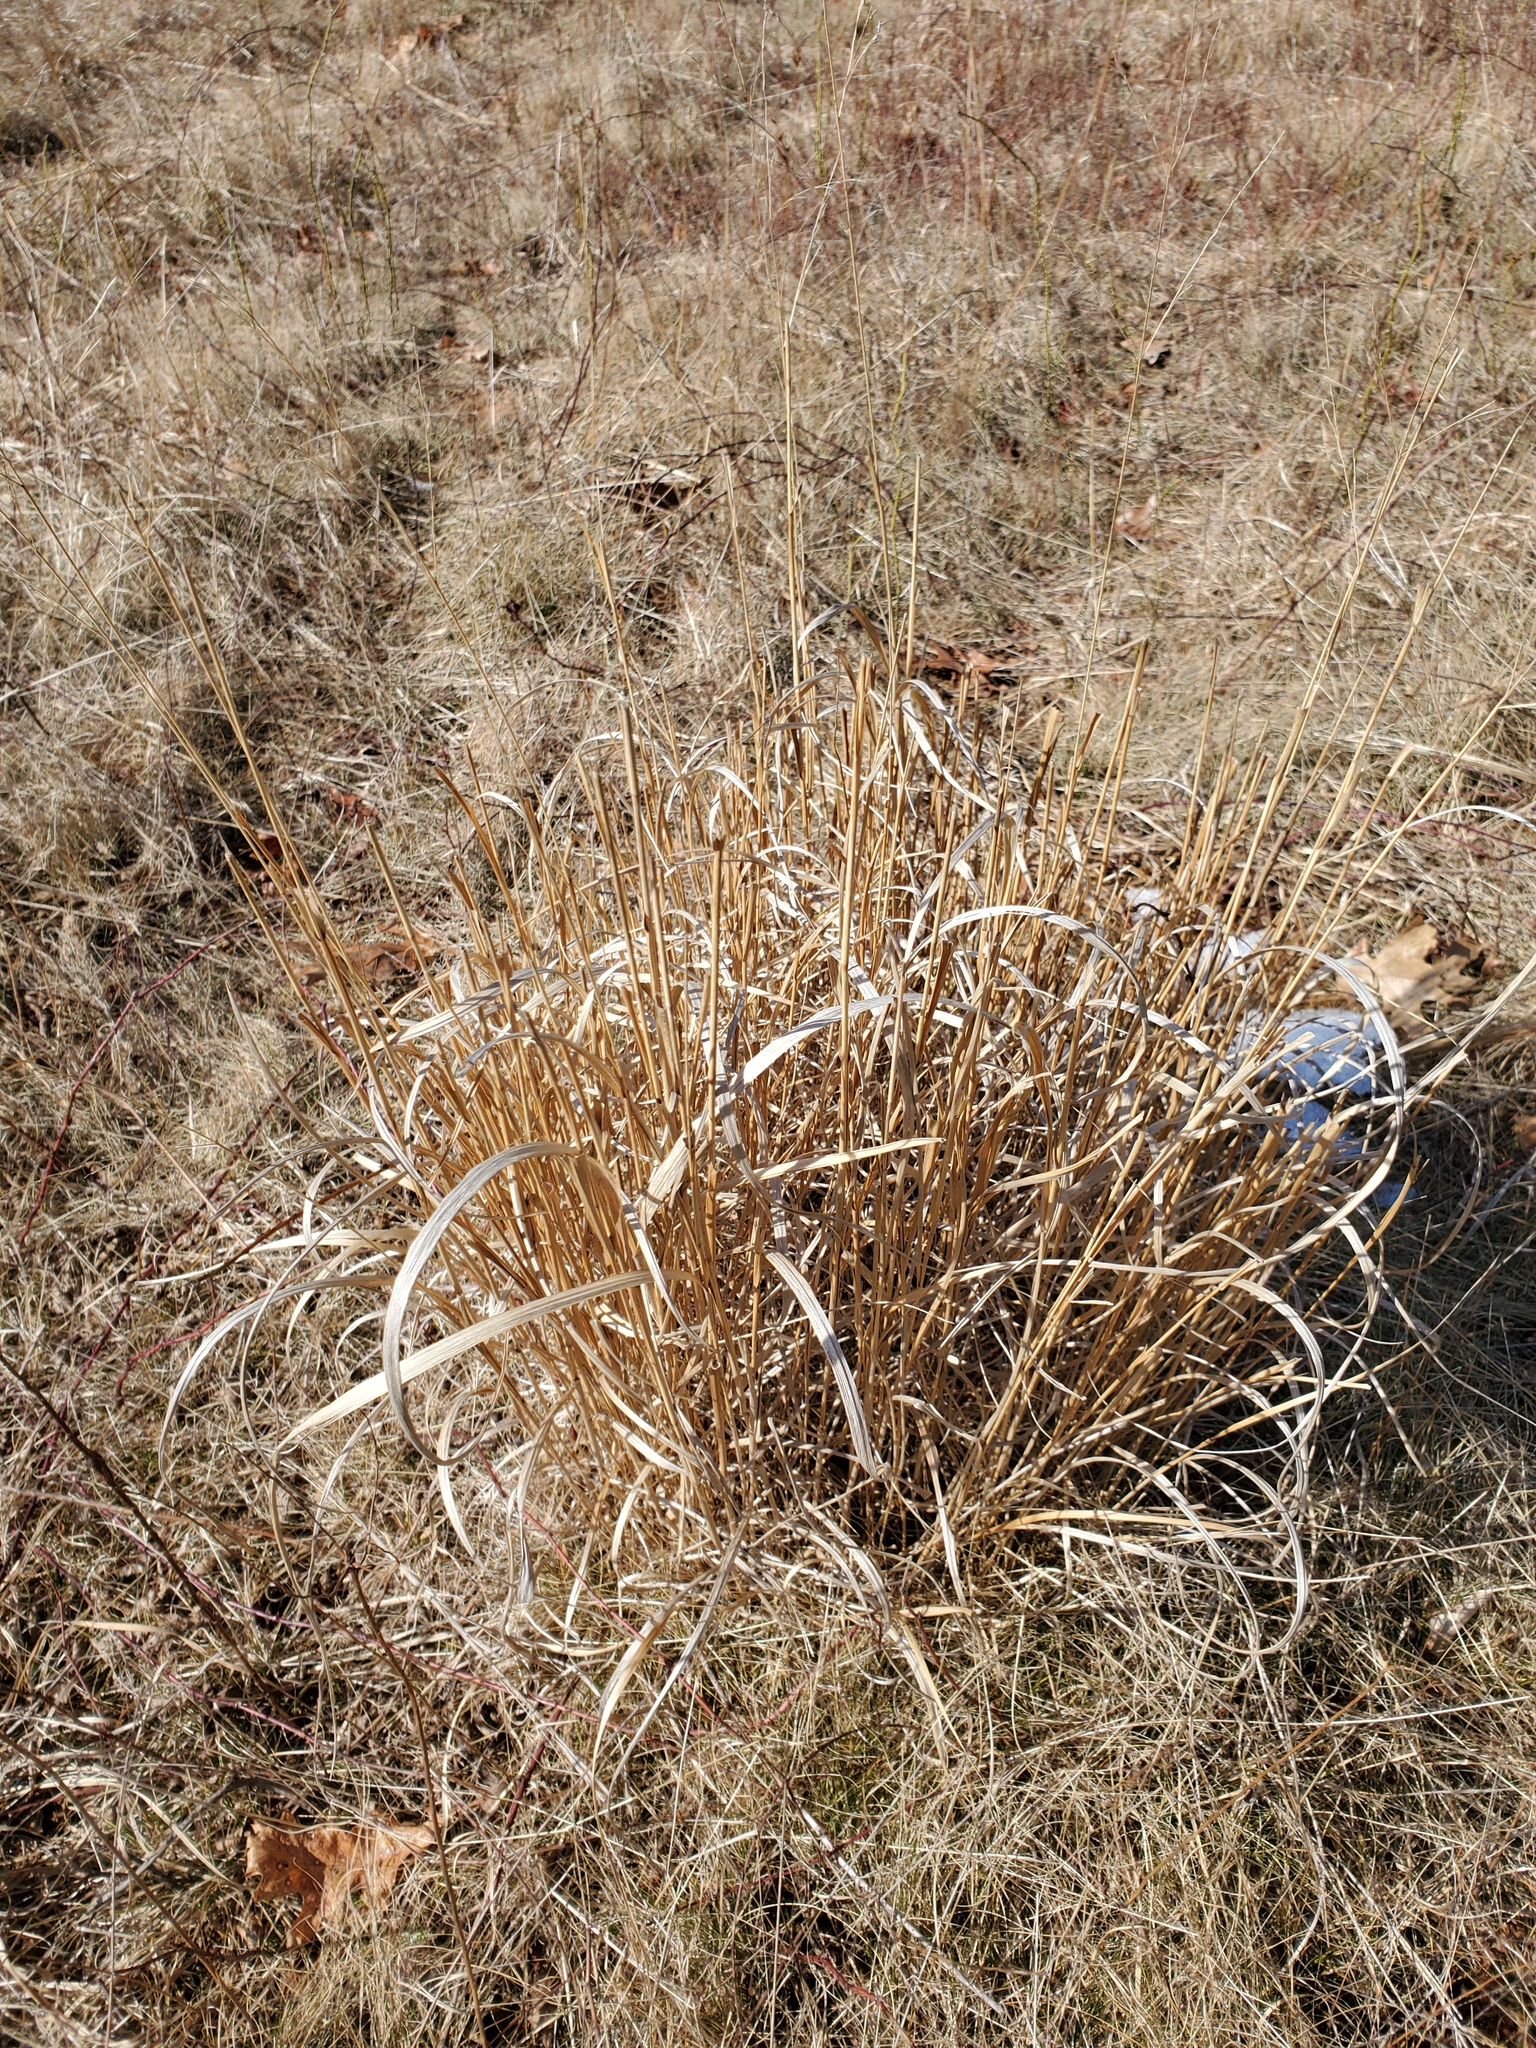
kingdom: Plantae
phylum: Tracheophyta
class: Liliopsida
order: Poales
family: Poaceae
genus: Panicum
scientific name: Panicum virgatum
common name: Switchgrass
